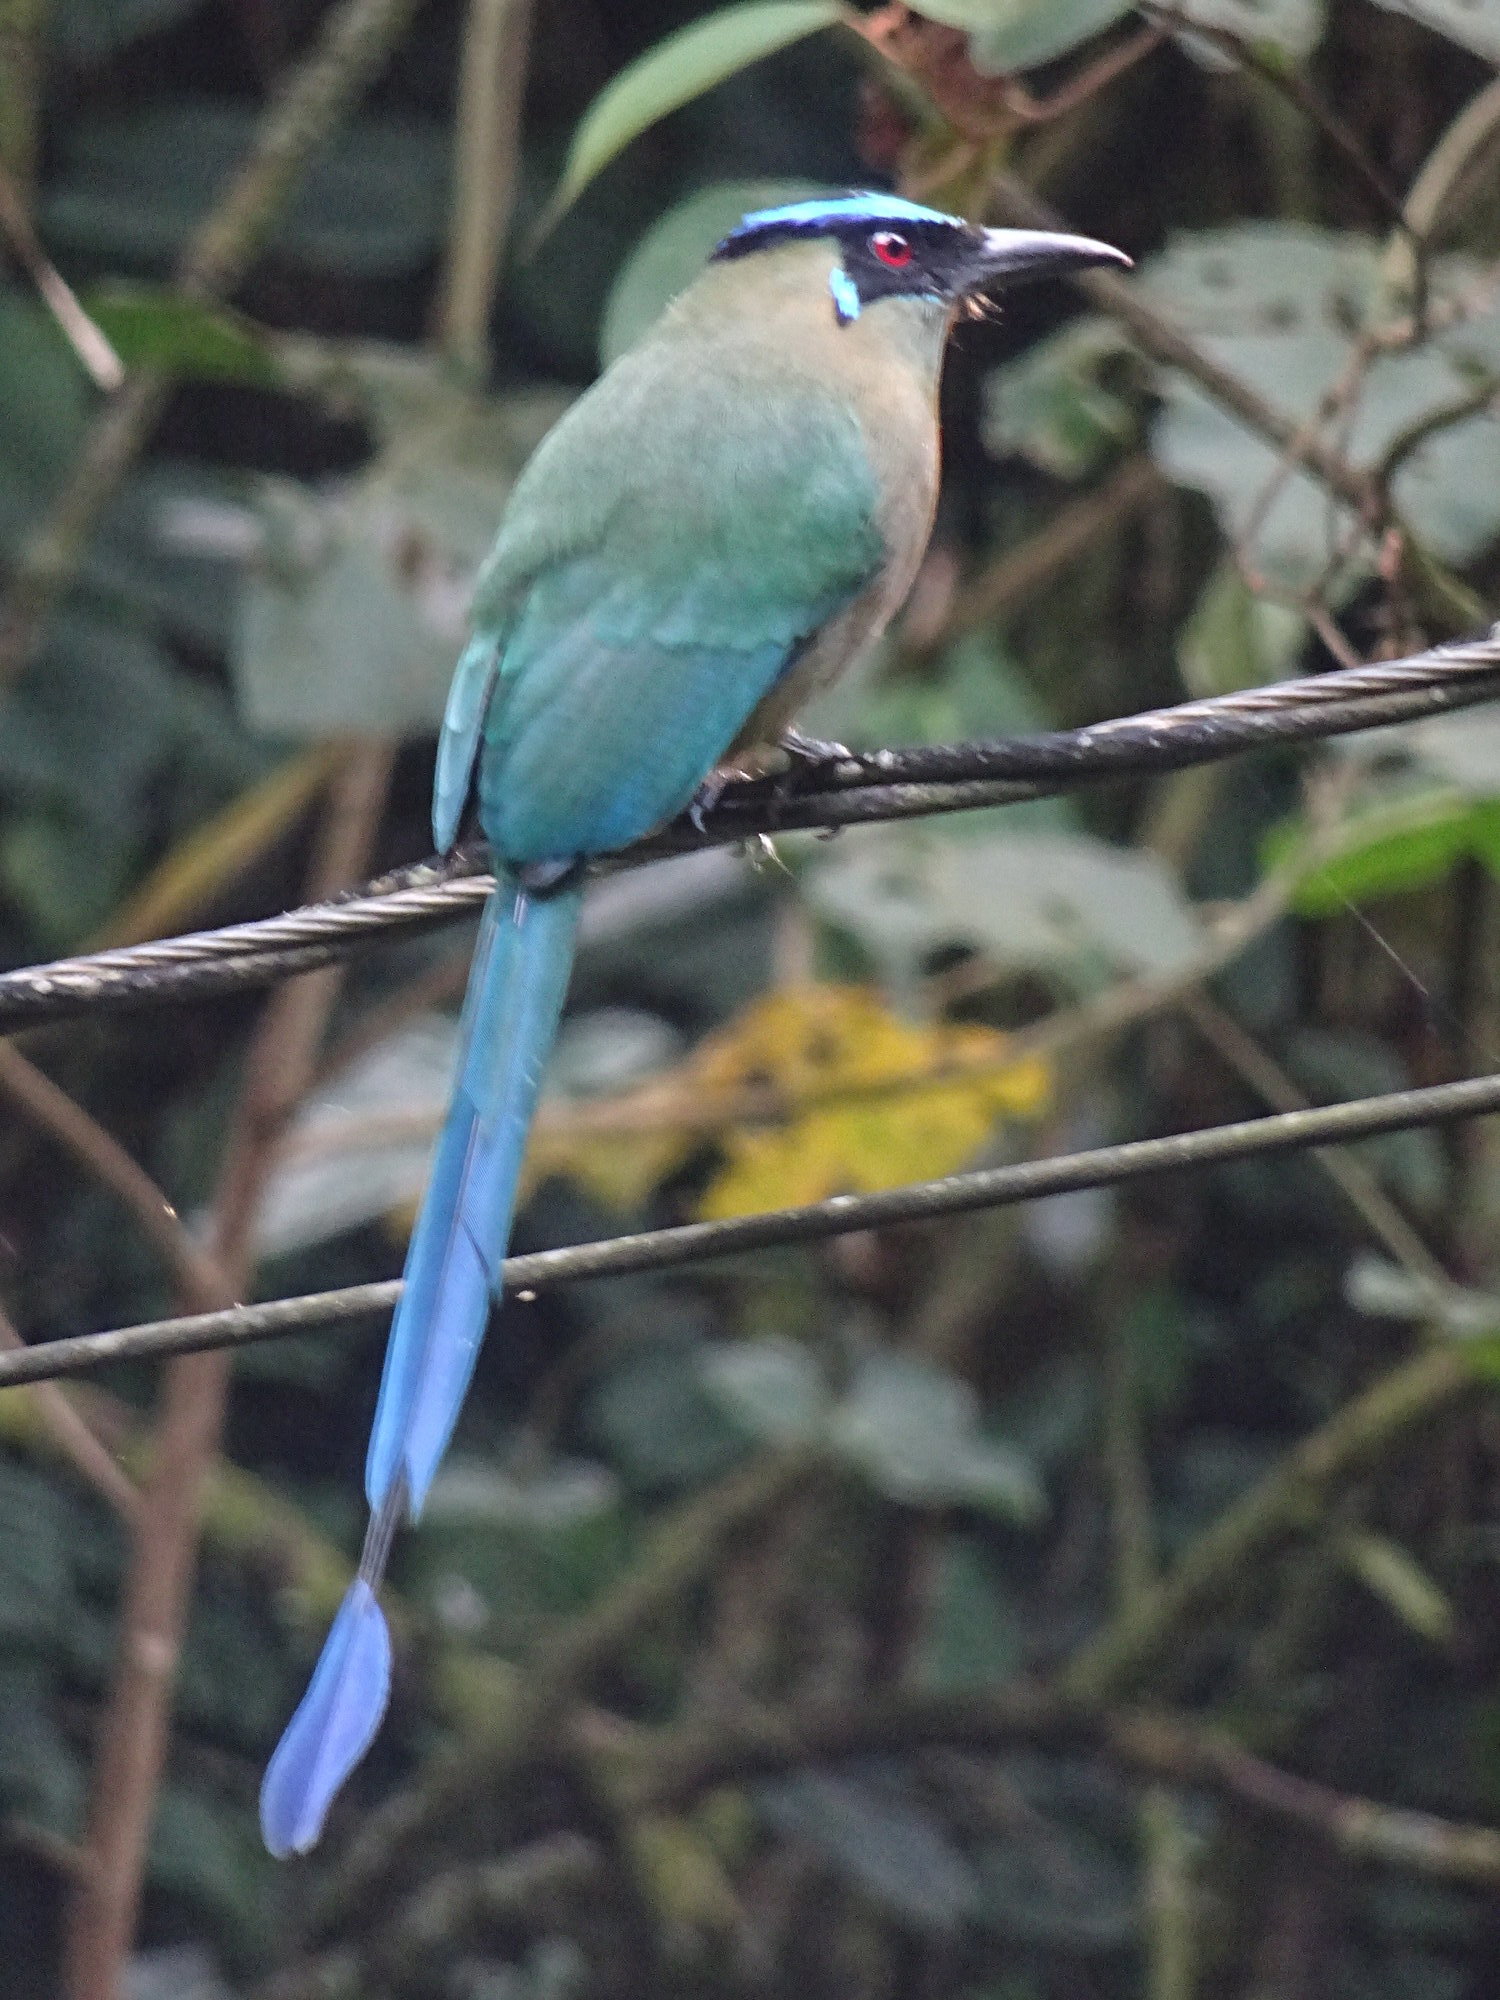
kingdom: Animalia
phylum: Chordata
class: Aves
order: Coraciiformes
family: Momotidae
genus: Momotus
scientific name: Momotus aequatorialis
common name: Andean motmot
